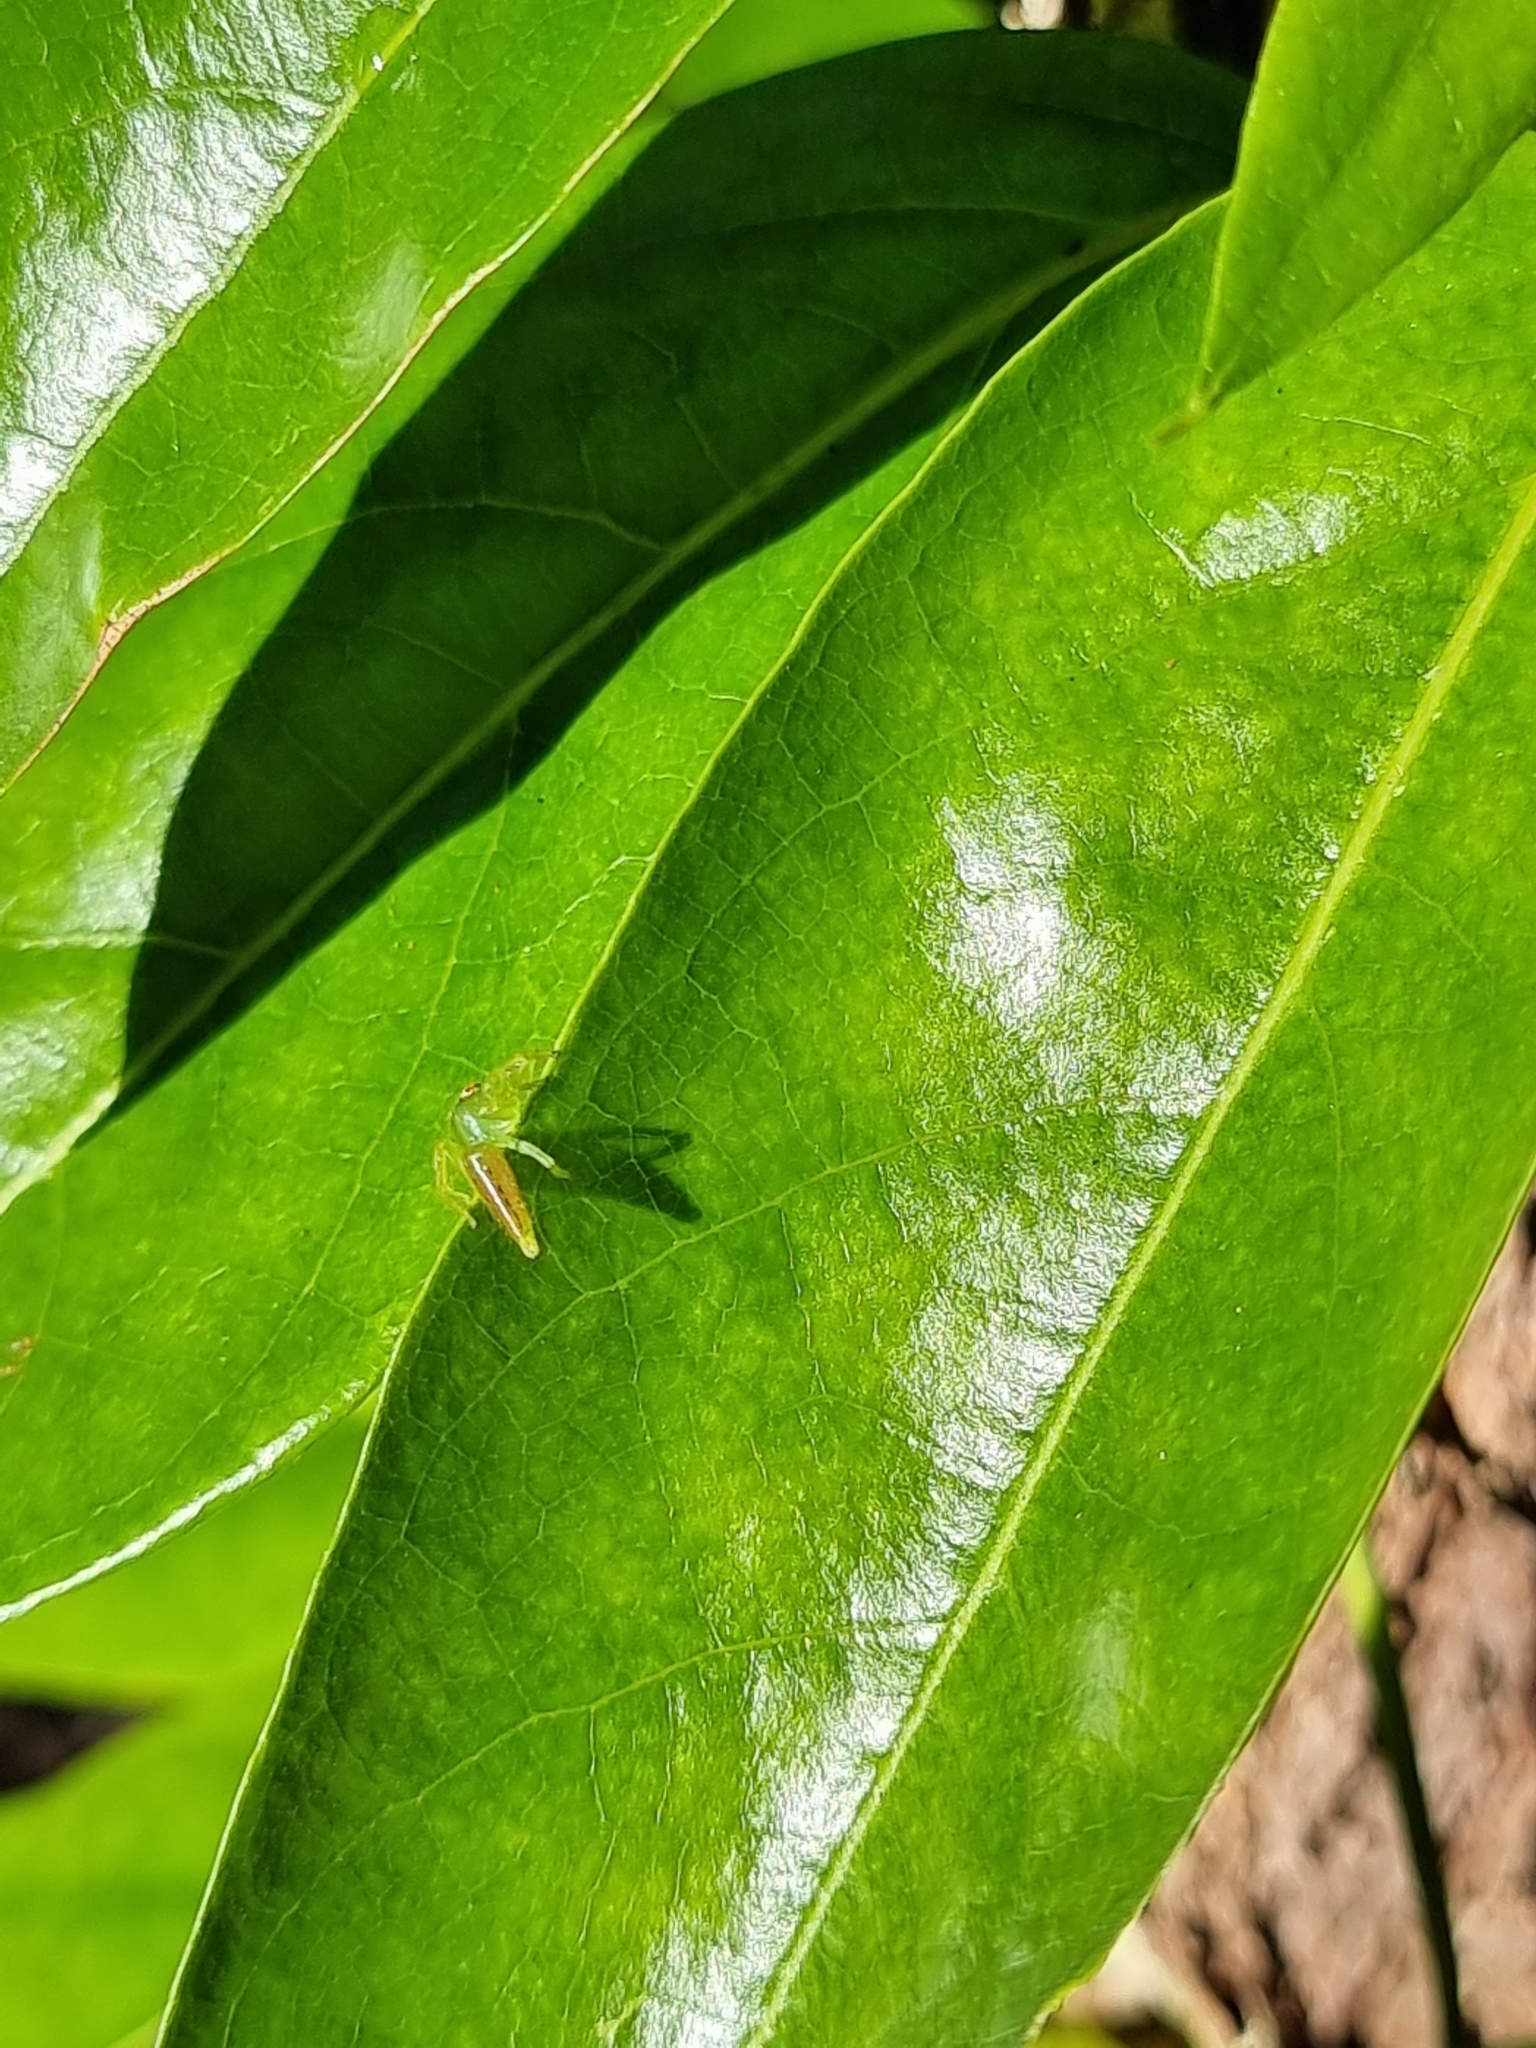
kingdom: Animalia
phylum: Arthropoda
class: Arachnida
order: Araneae
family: Salticidae
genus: Mopsus
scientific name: Mopsus mormon
